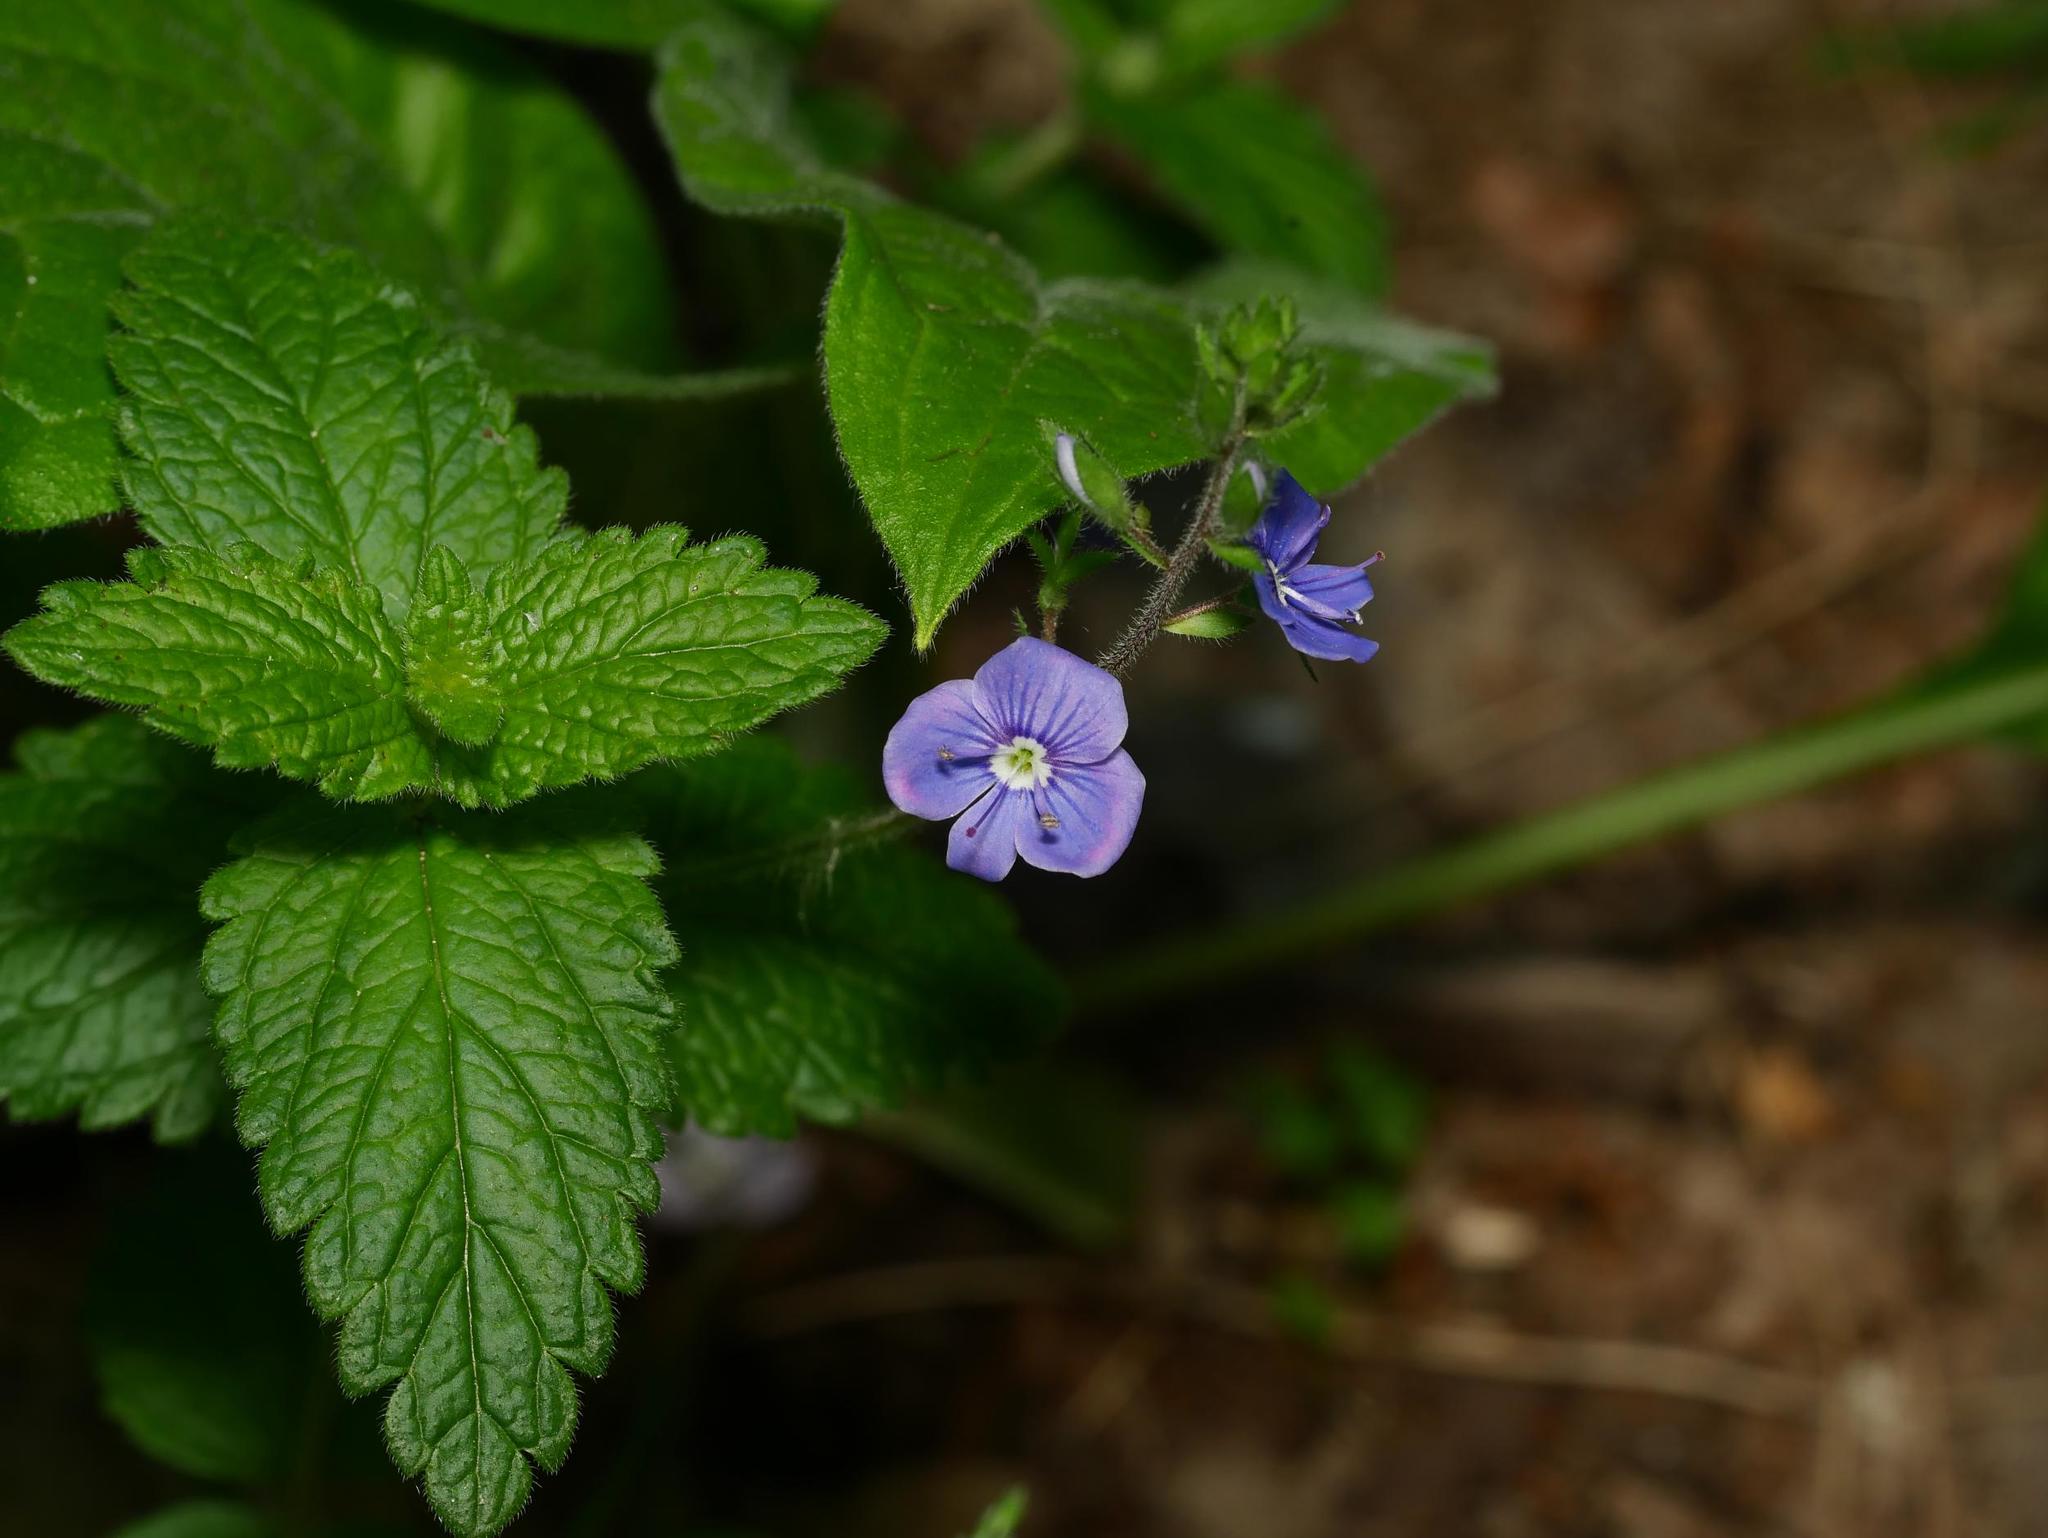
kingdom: Plantae
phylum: Tracheophyta
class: Magnoliopsida
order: Lamiales
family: Plantaginaceae
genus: Veronica
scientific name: Veronica chamaedrys
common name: Germander speedwell
